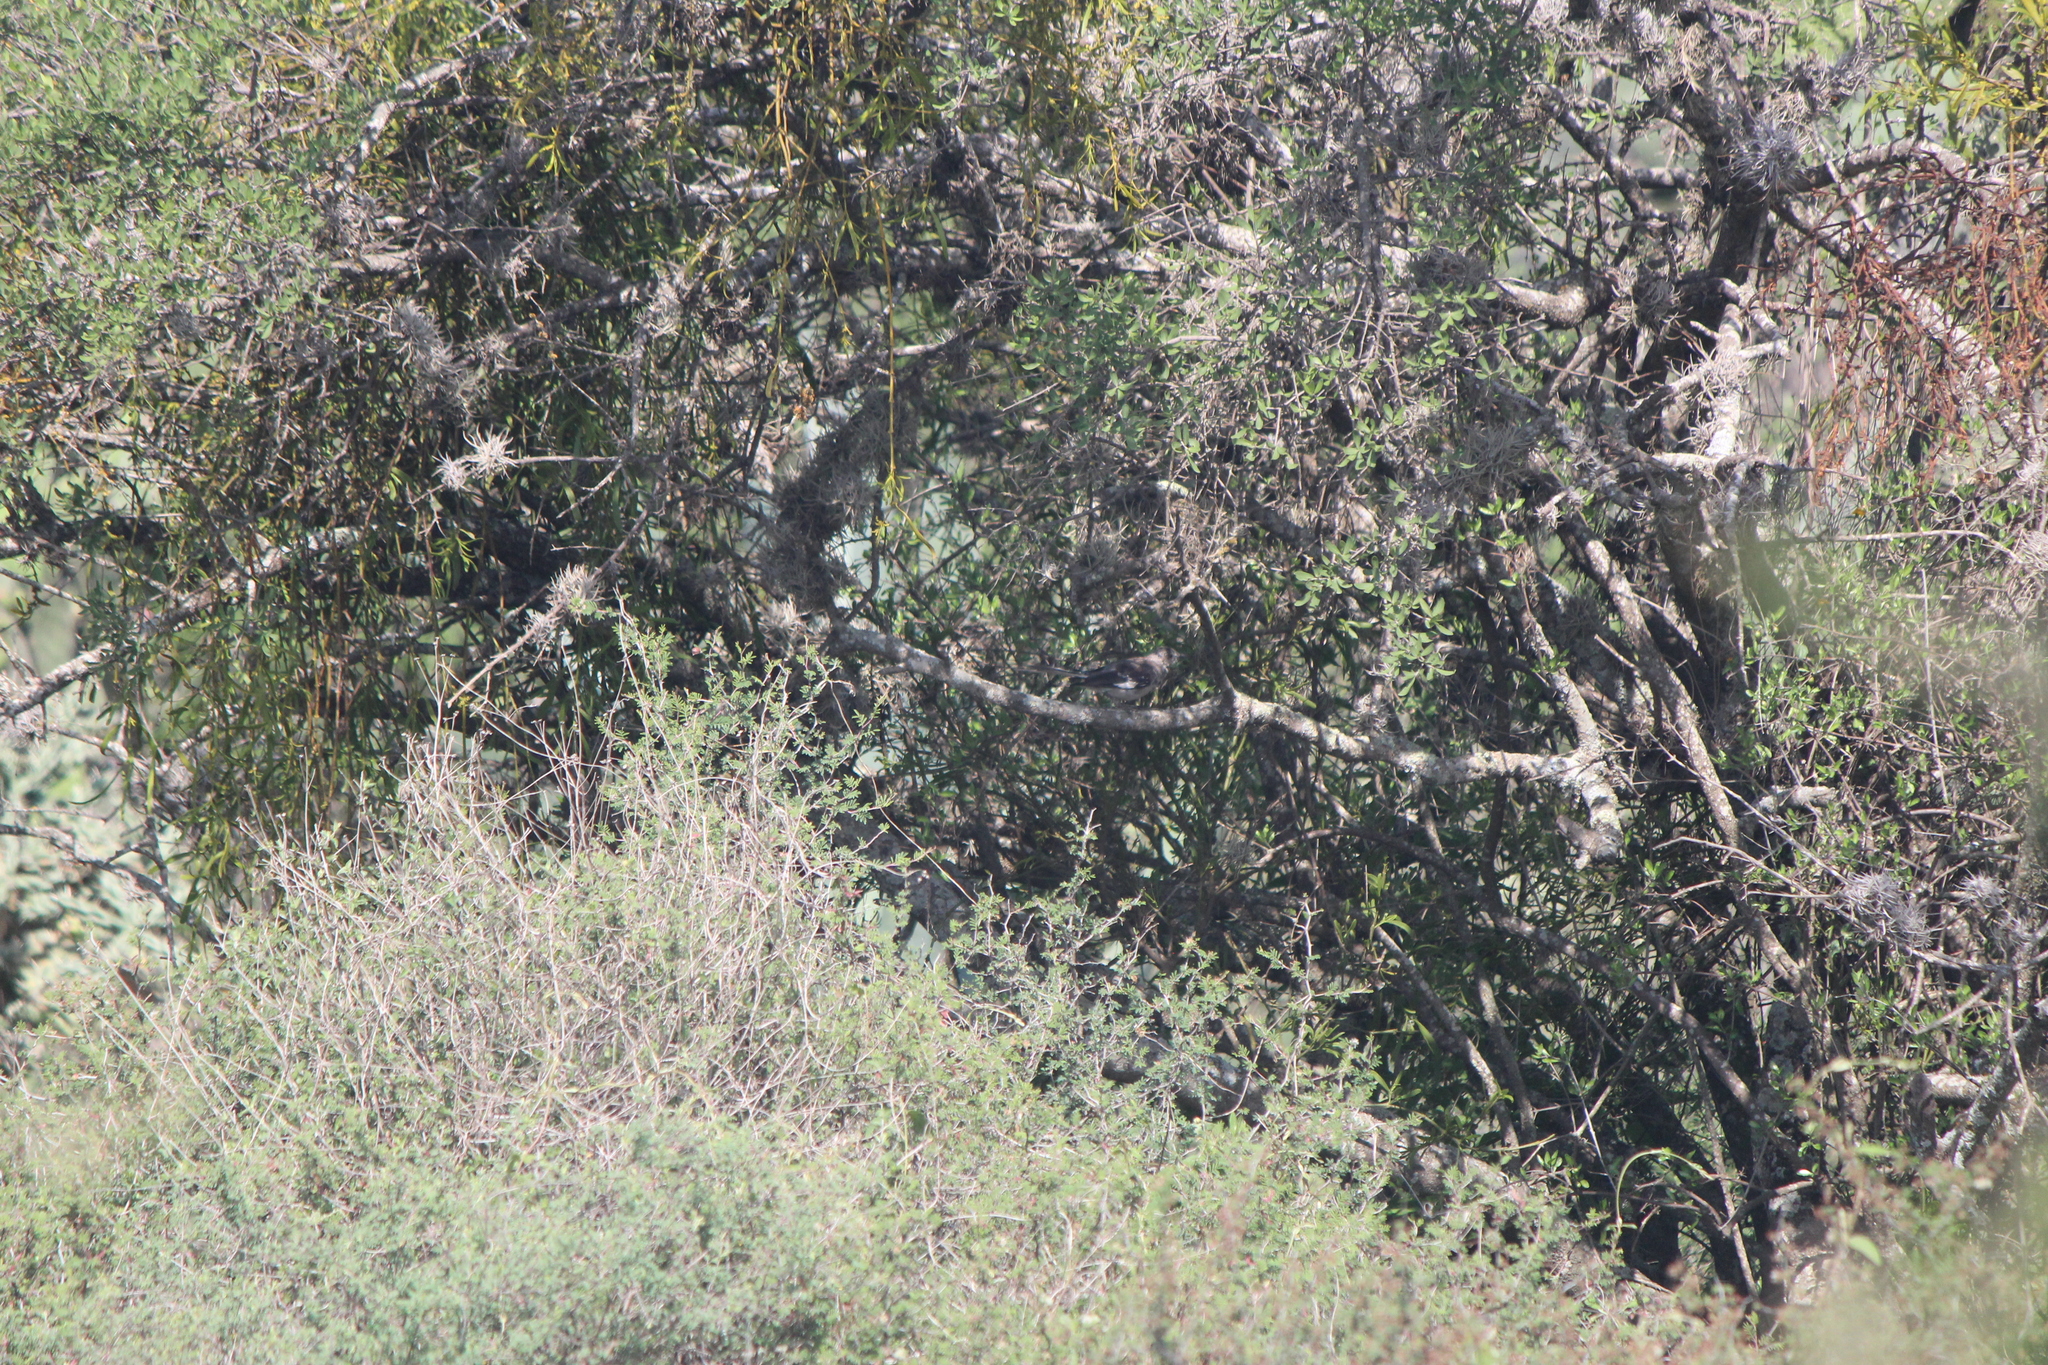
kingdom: Animalia
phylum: Chordata
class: Aves
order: Passeriformes
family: Mimidae
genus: Mimus
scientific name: Mimus polyglottos
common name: Northern mockingbird
